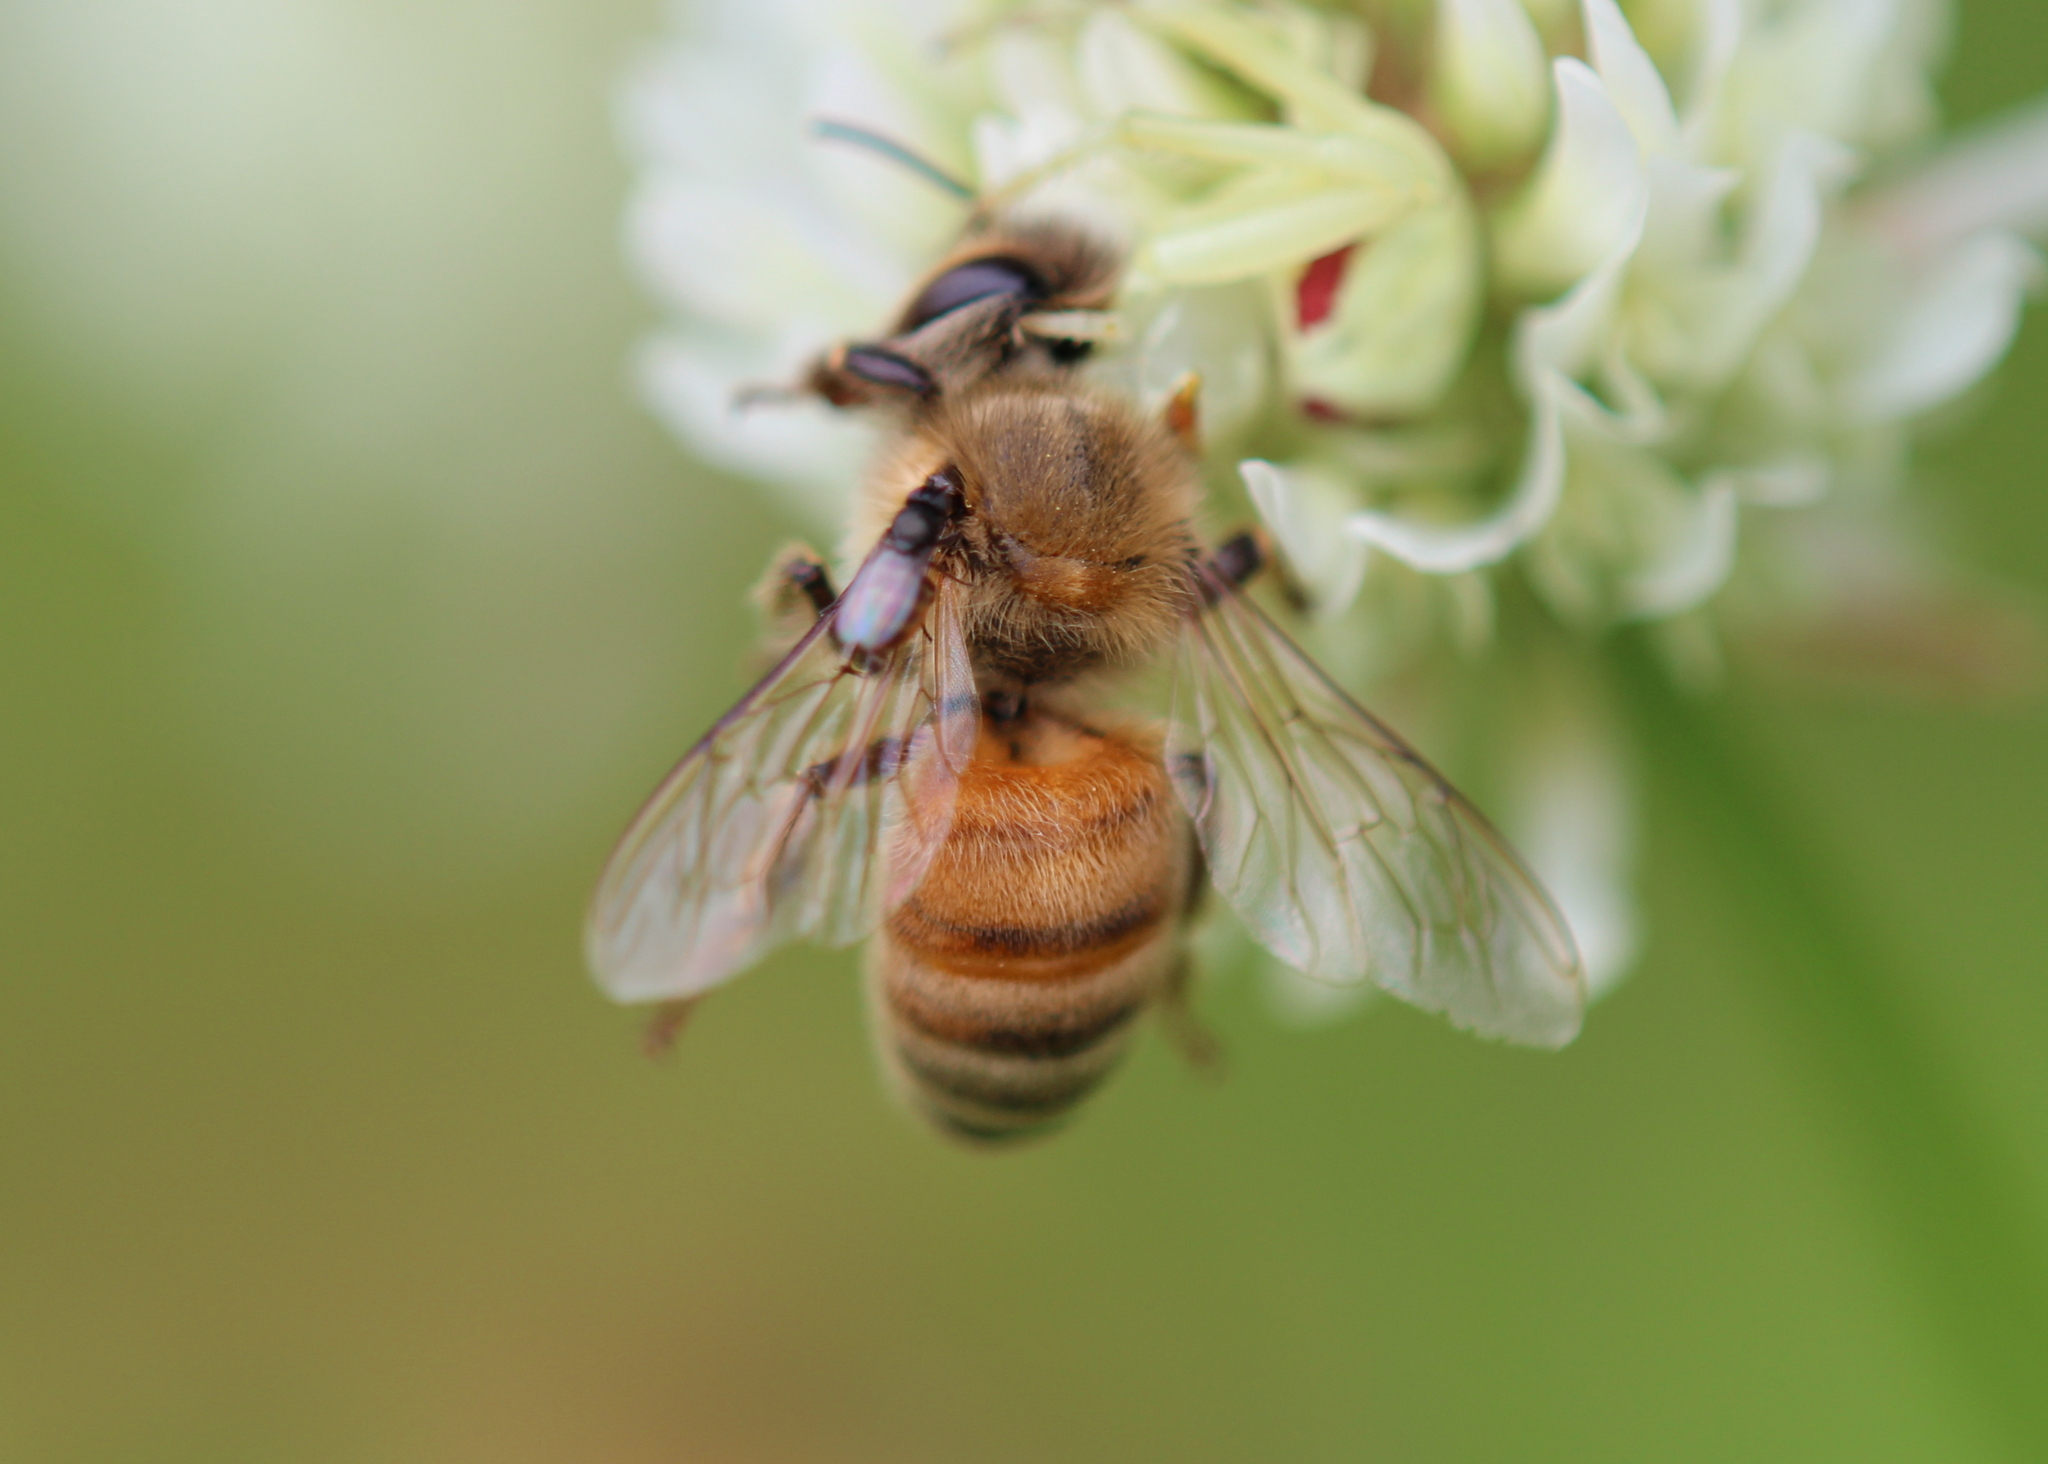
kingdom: Animalia
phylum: Arthropoda
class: Insecta
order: Hymenoptera
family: Apidae
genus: Apis
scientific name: Apis mellifera
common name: Honey bee
